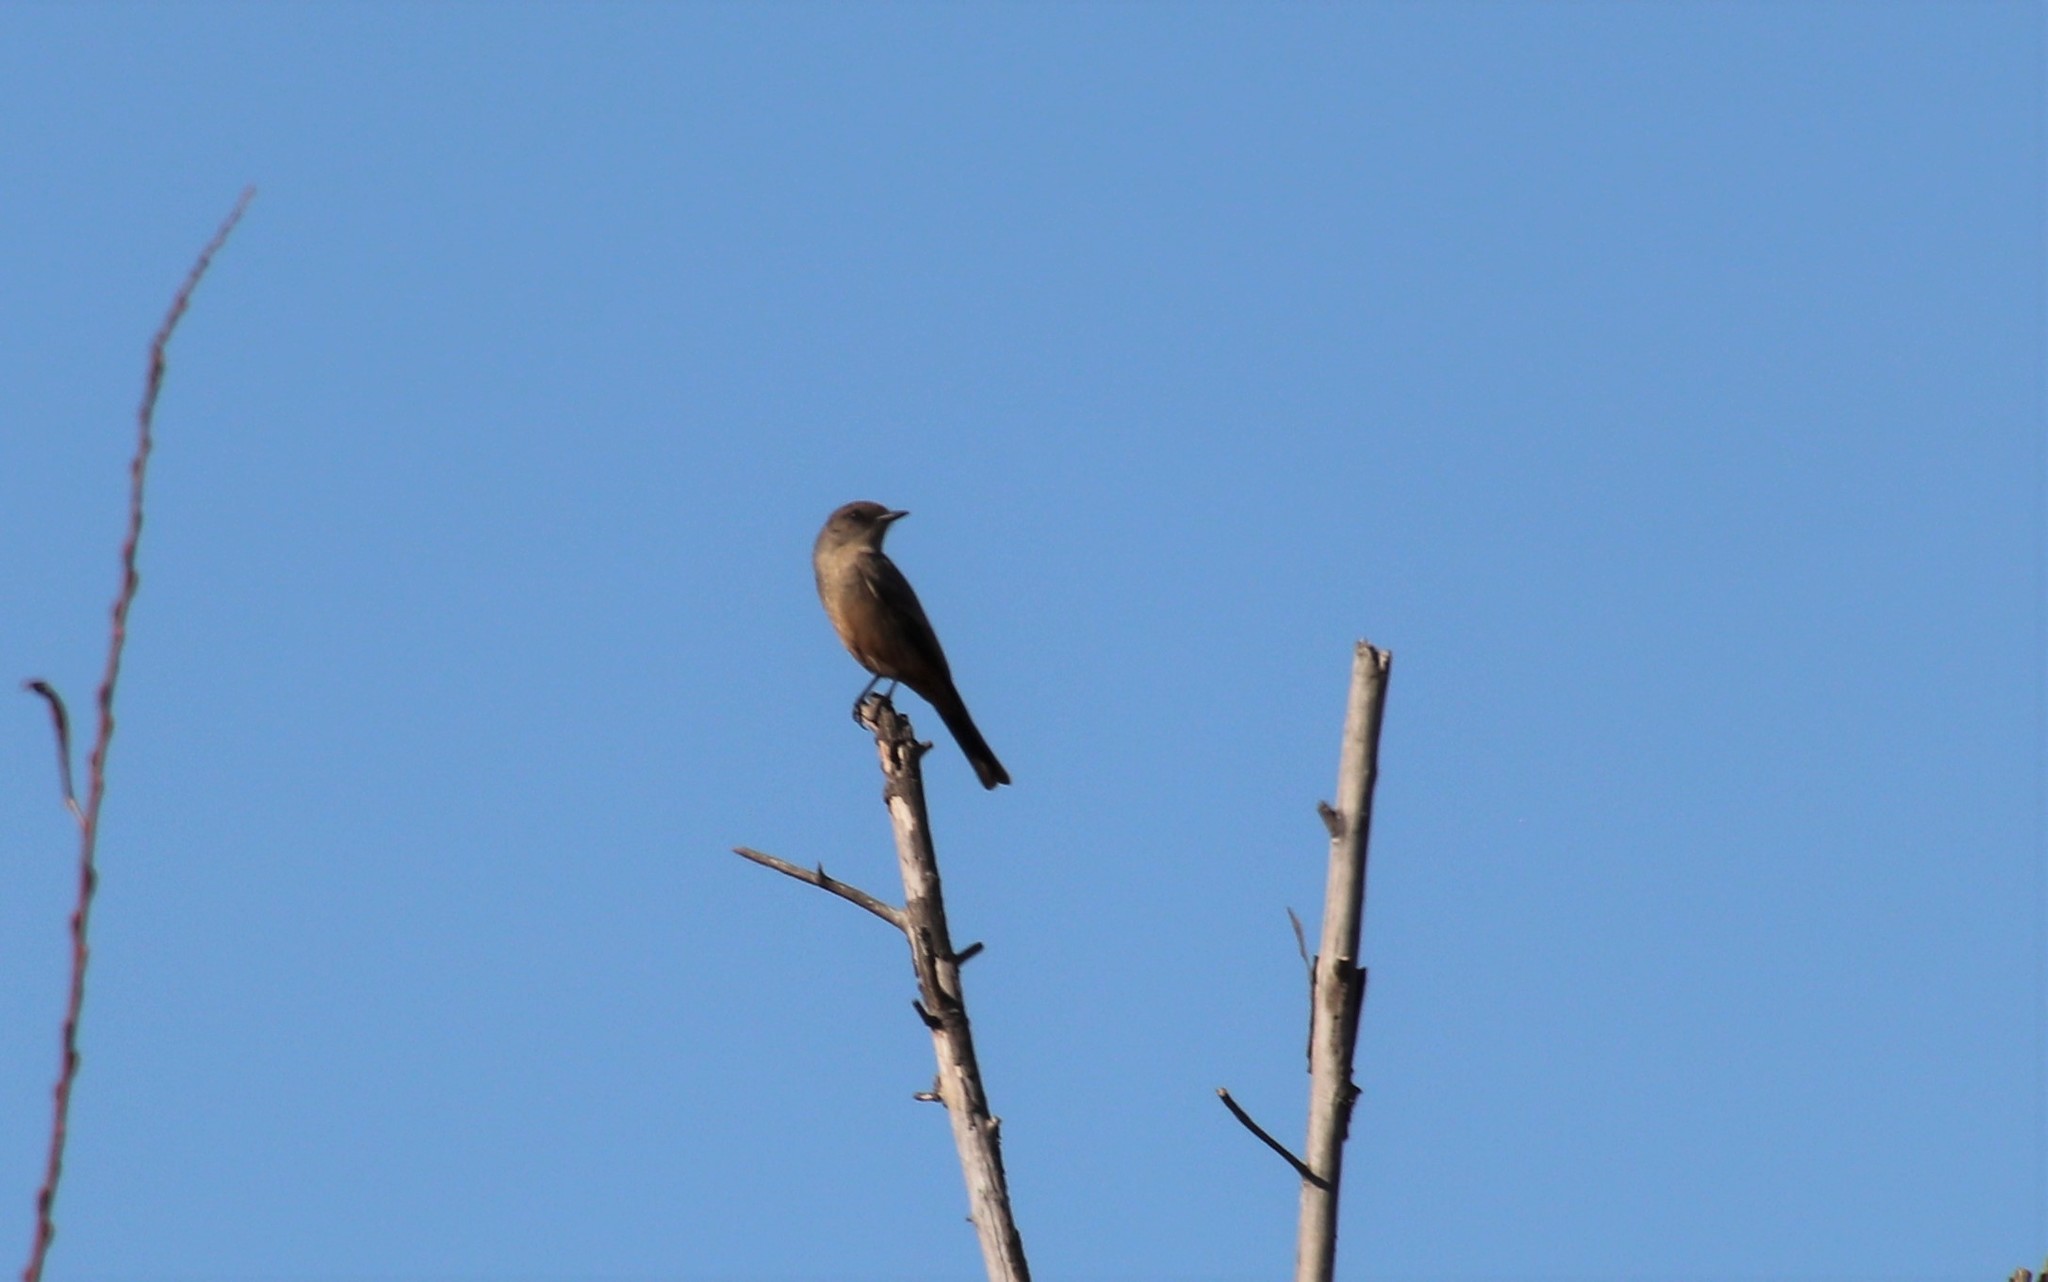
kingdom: Animalia
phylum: Chordata
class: Aves
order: Passeriformes
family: Tyrannidae
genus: Sayornis
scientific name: Sayornis saya
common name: Say's phoebe
